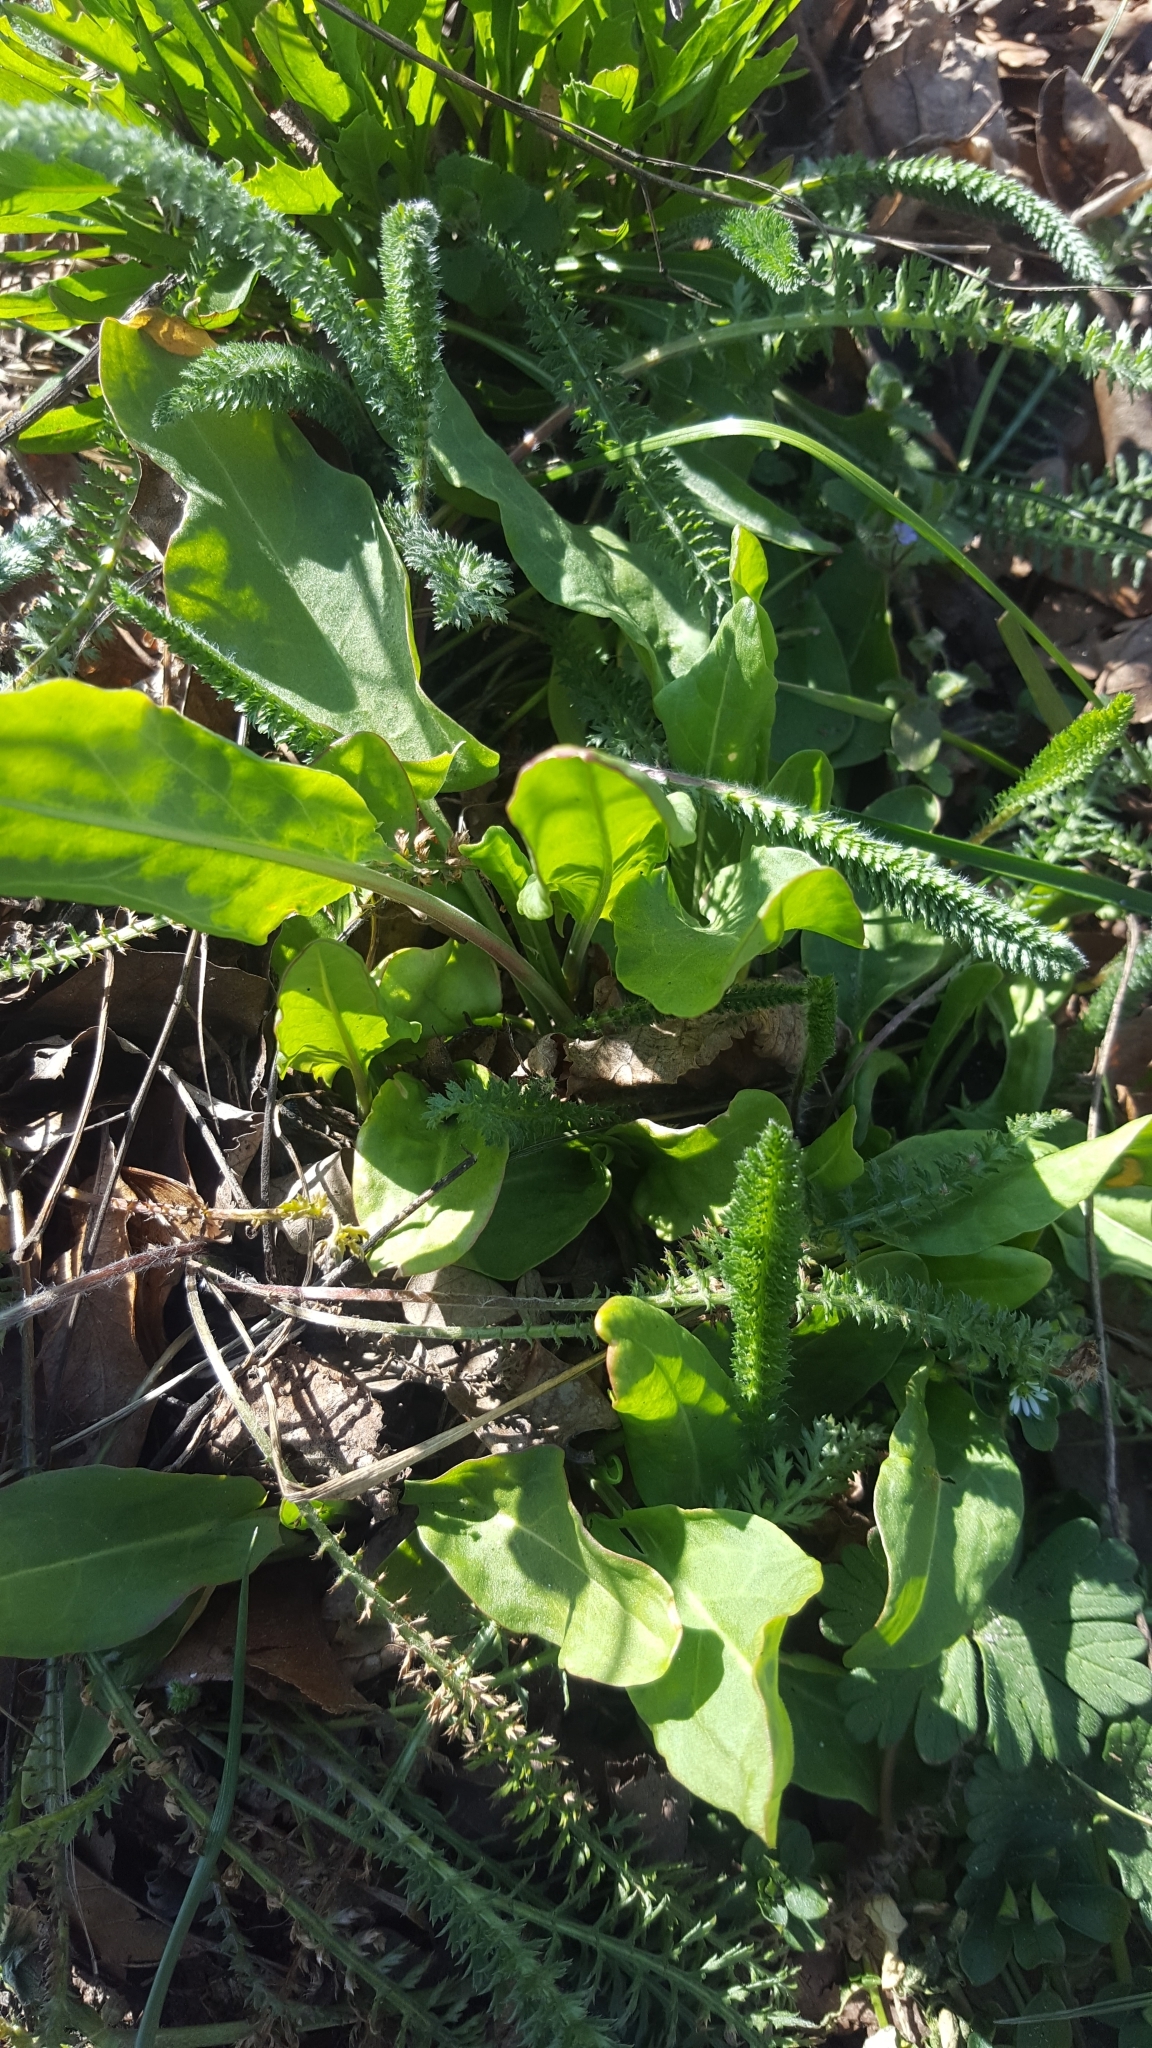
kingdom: Plantae
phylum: Tracheophyta
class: Magnoliopsida
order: Asterales
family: Asteraceae
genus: Achillea
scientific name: Achillea millefolium
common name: Yarrow
